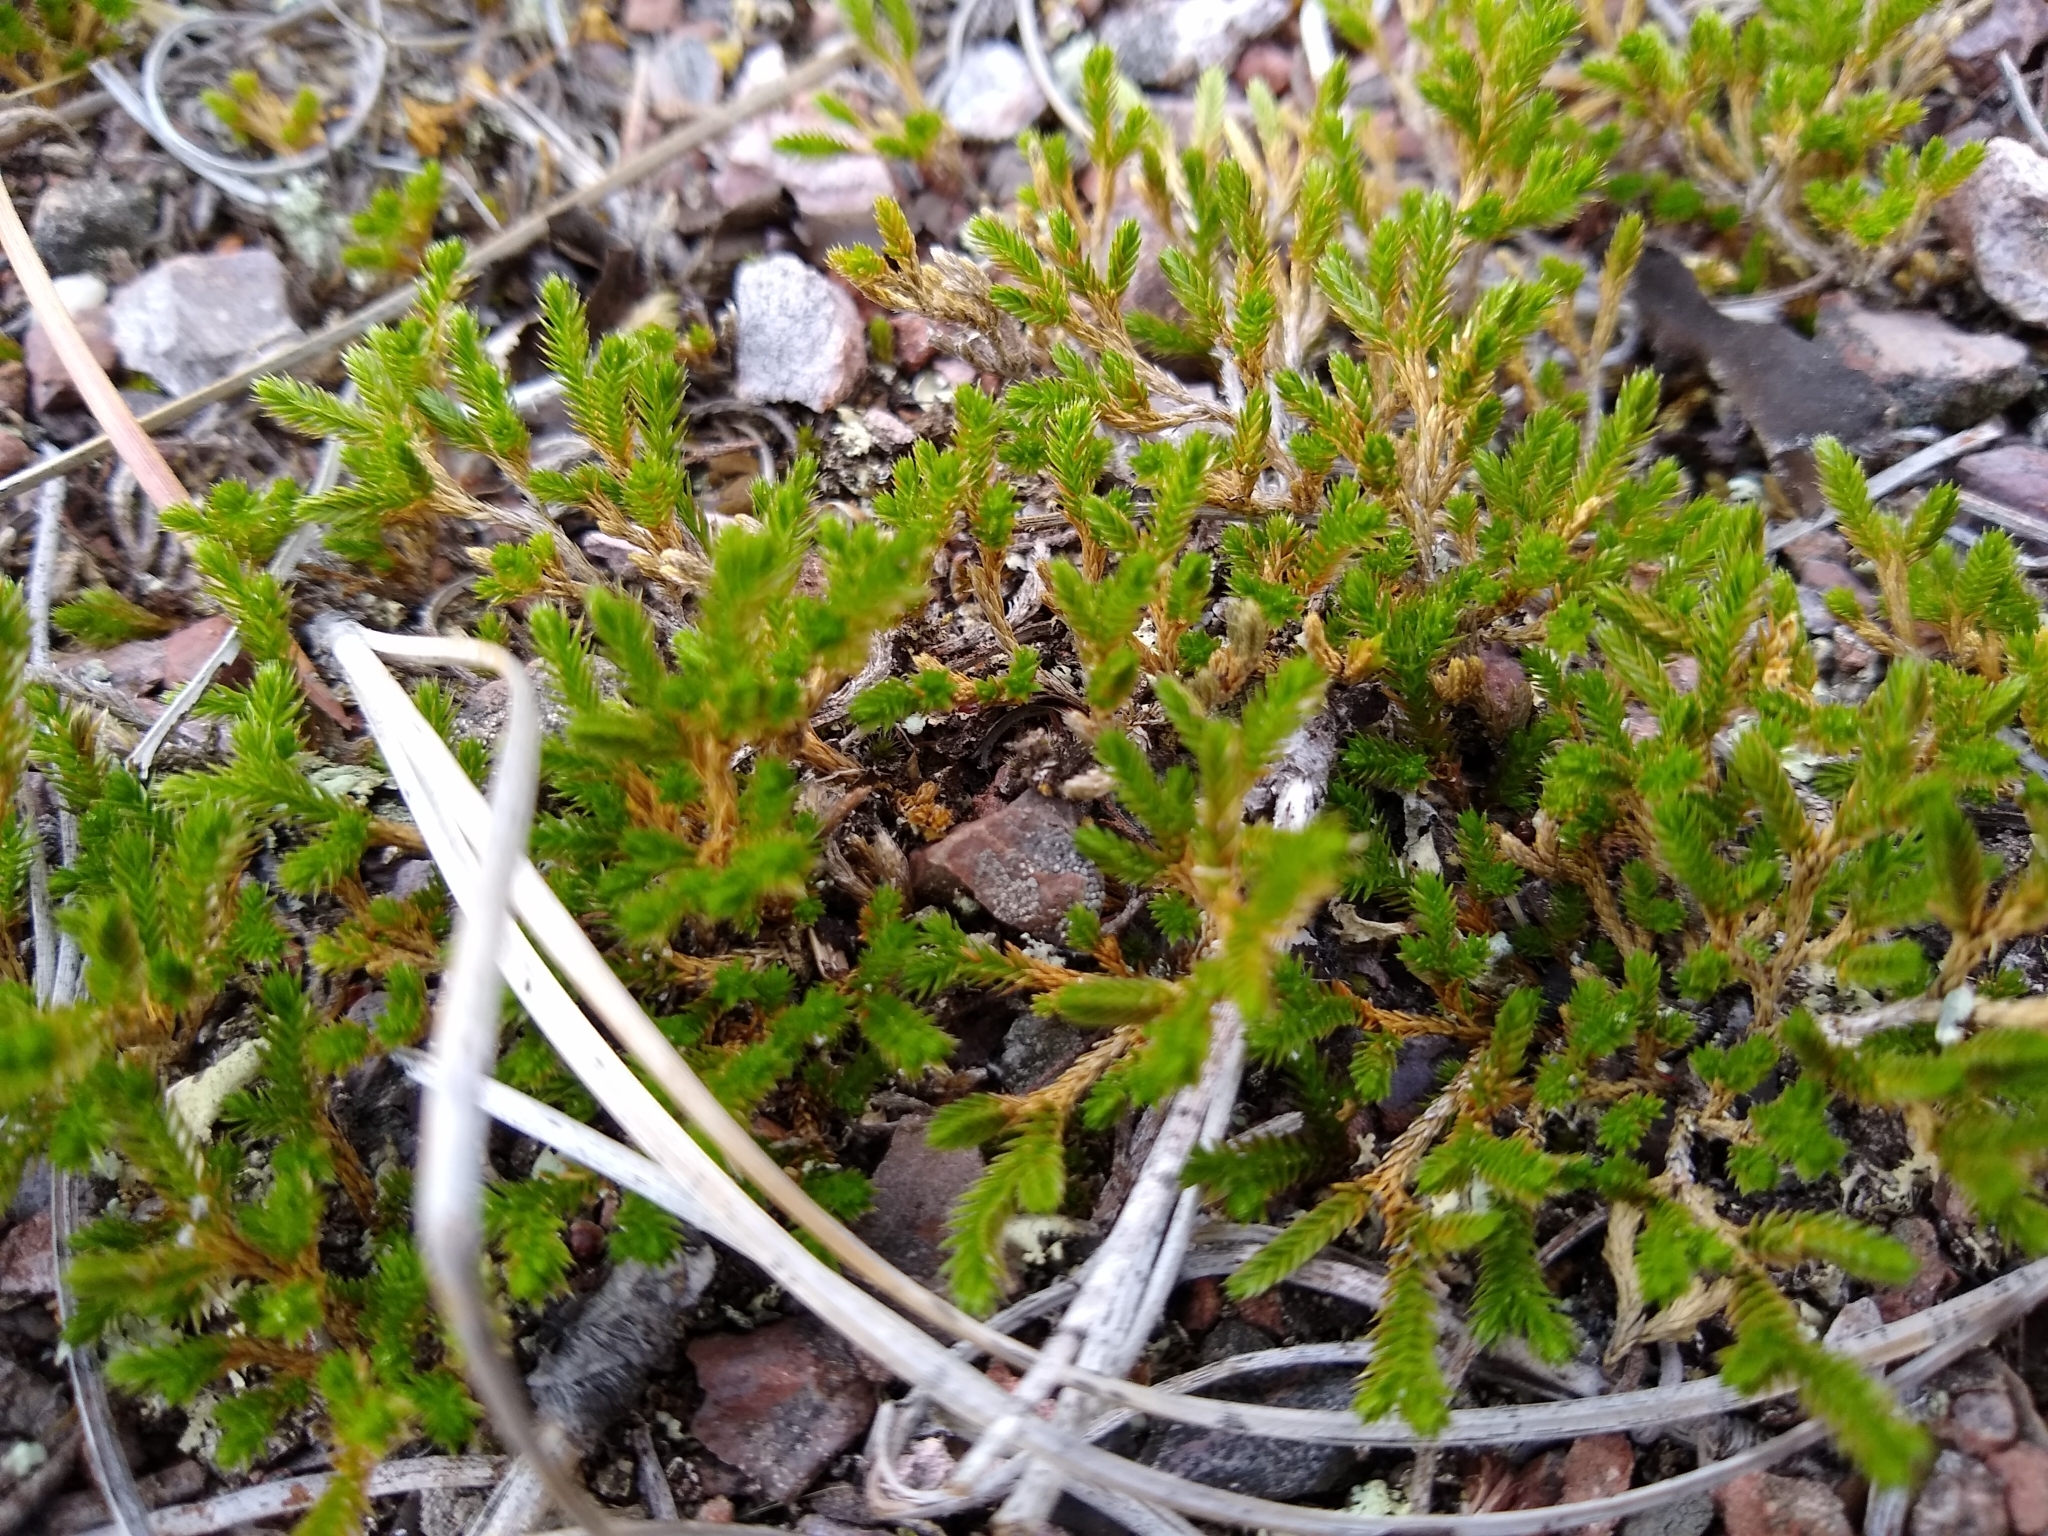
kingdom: Plantae
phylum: Tracheophyta
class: Lycopodiopsida
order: Selaginellales
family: Selaginellaceae
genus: Selaginella
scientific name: Selaginella bigelovii
